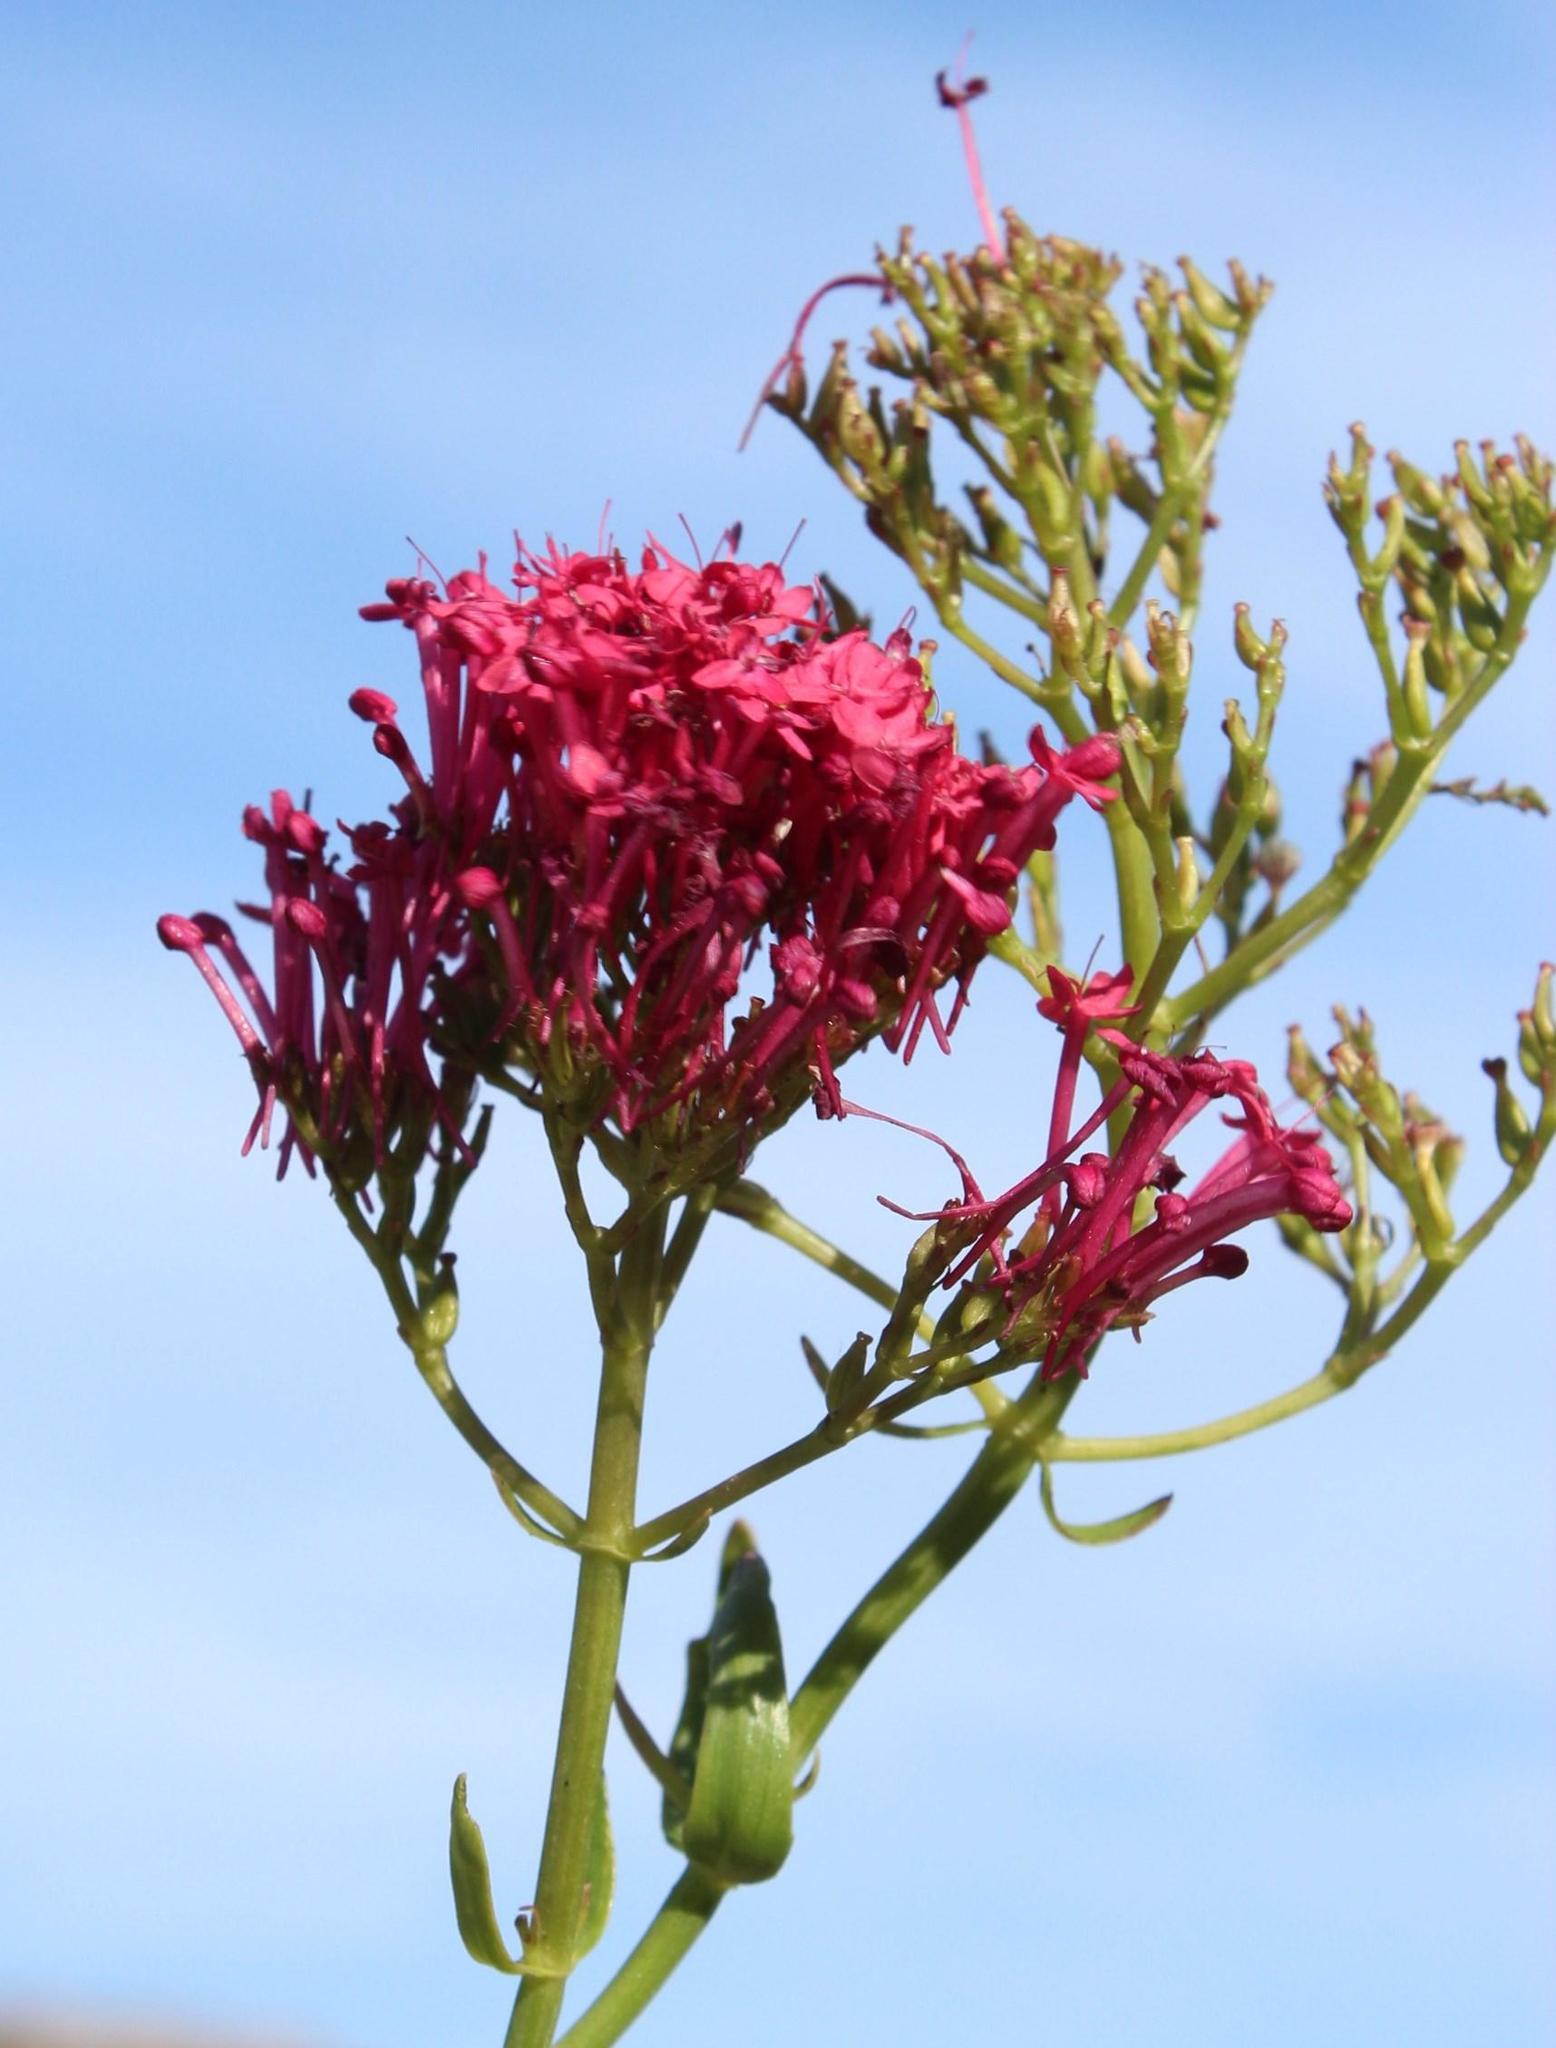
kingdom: Plantae
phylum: Tracheophyta
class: Magnoliopsida
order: Dipsacales
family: Caprifoliaceae
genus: Centranthus
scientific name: Centranthus ruber
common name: Red valerian
